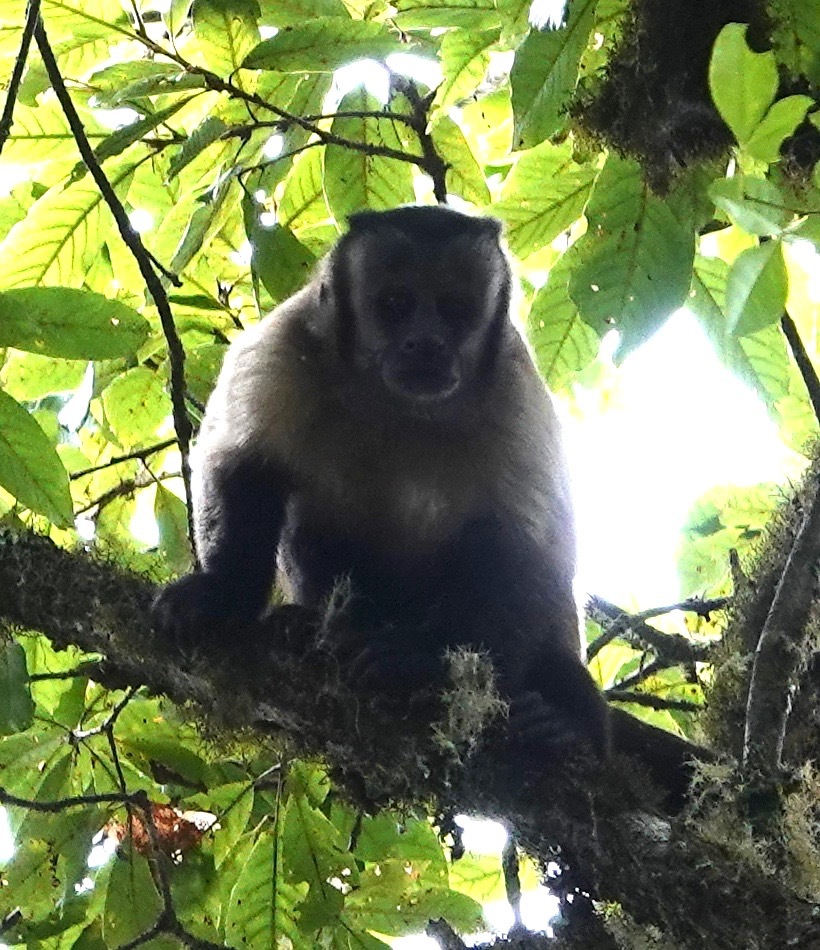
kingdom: Animalia
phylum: Chordata
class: Mammalia
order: Primates
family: Cebidae
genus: Sapajus
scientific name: Sapajus apella
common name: Tufted capuchin
